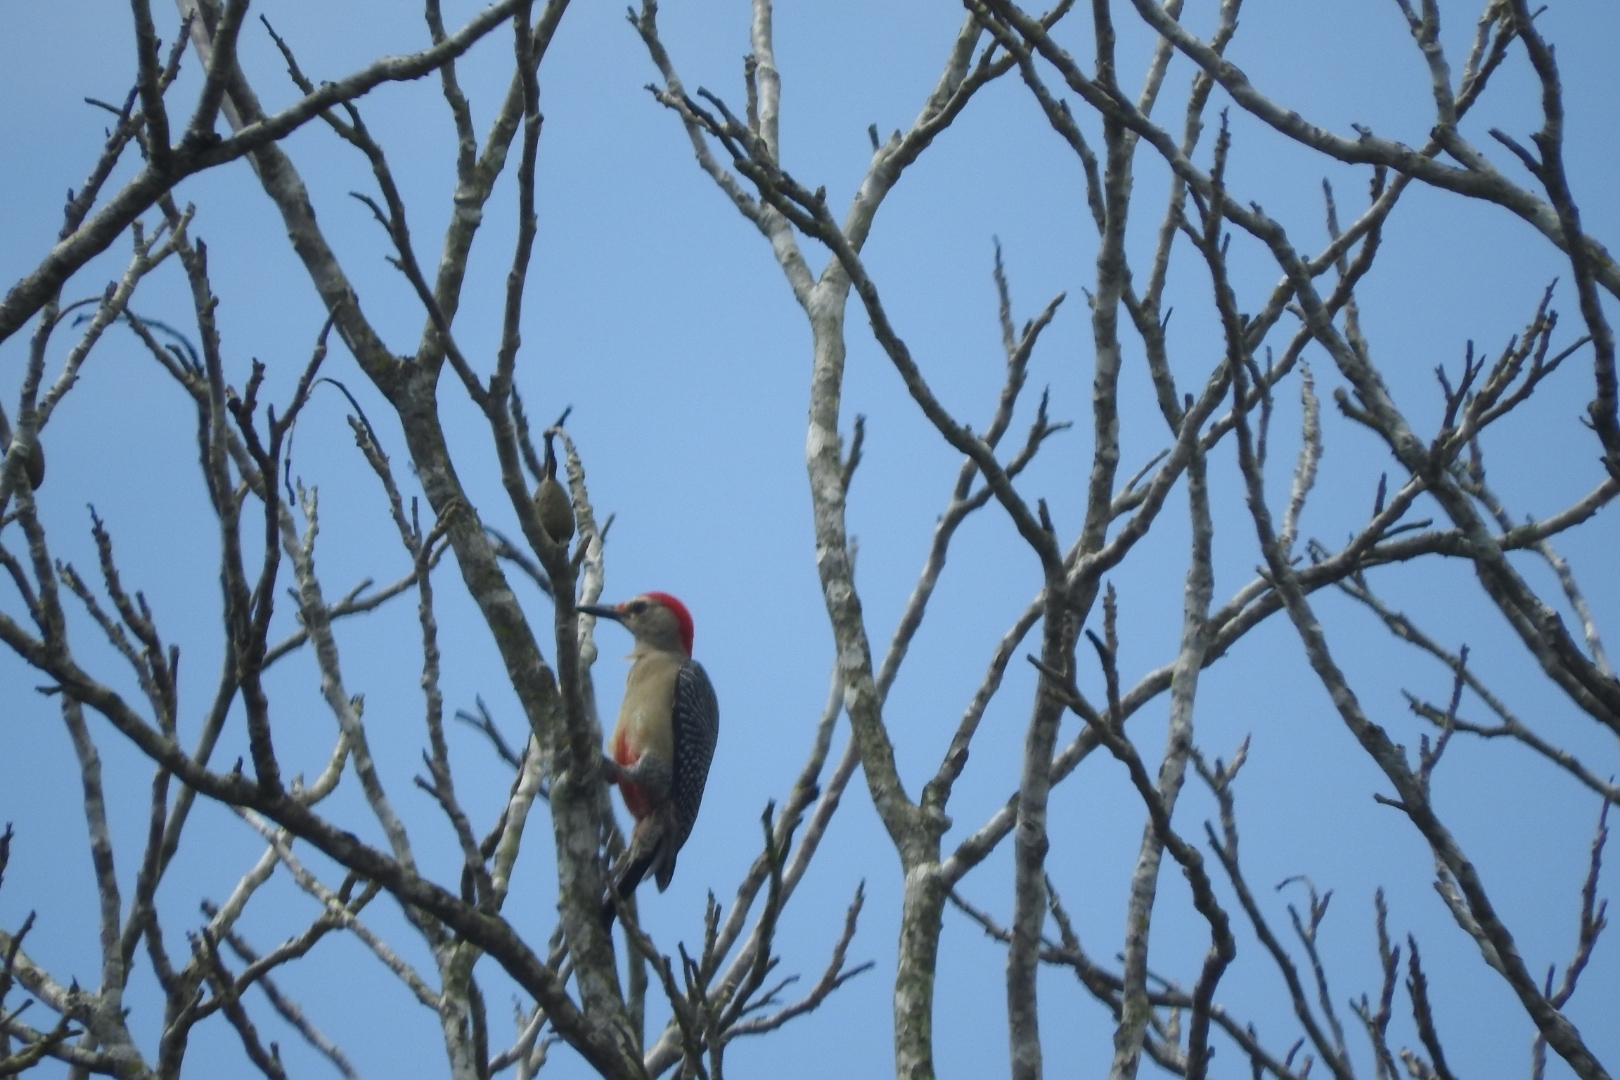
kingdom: Animalia
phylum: Chordata
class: Aves
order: Piciformes
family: Picidae
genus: Melanerpes
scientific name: Melanerpes aurifrons
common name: Golden-fronted woodpecker
